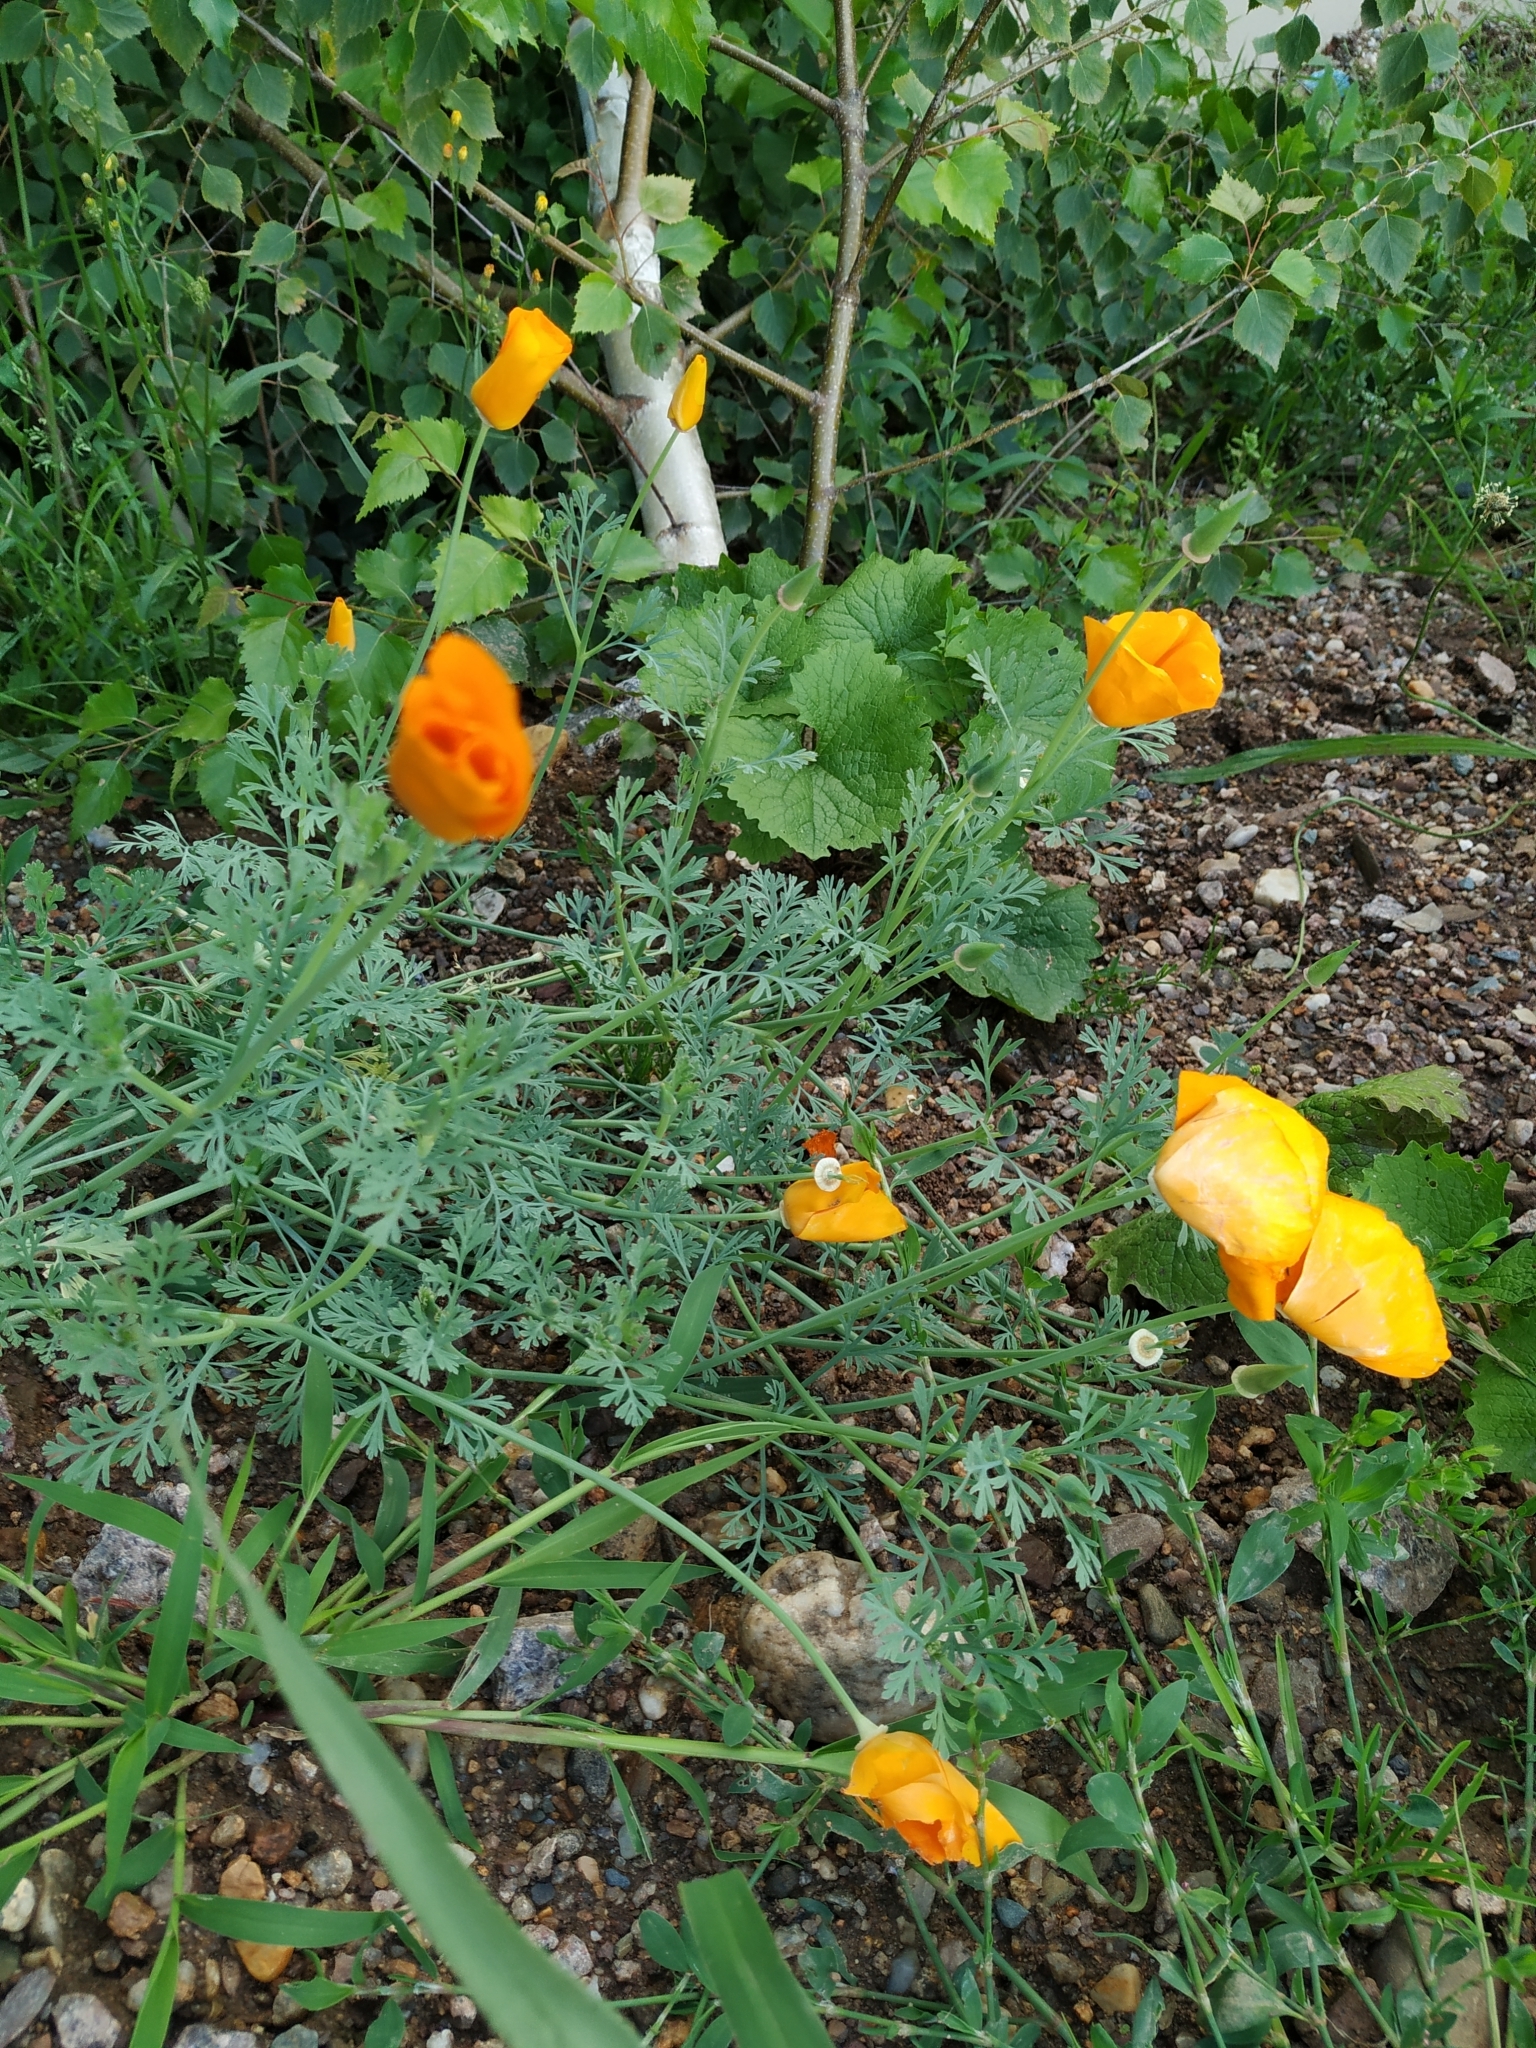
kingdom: Plantae
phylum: Tracheophyta
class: Magnoliopsida
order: Ranunculales
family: Papaveraceae
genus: Eschscholzia
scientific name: Eschscholzia californica
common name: California poppy
